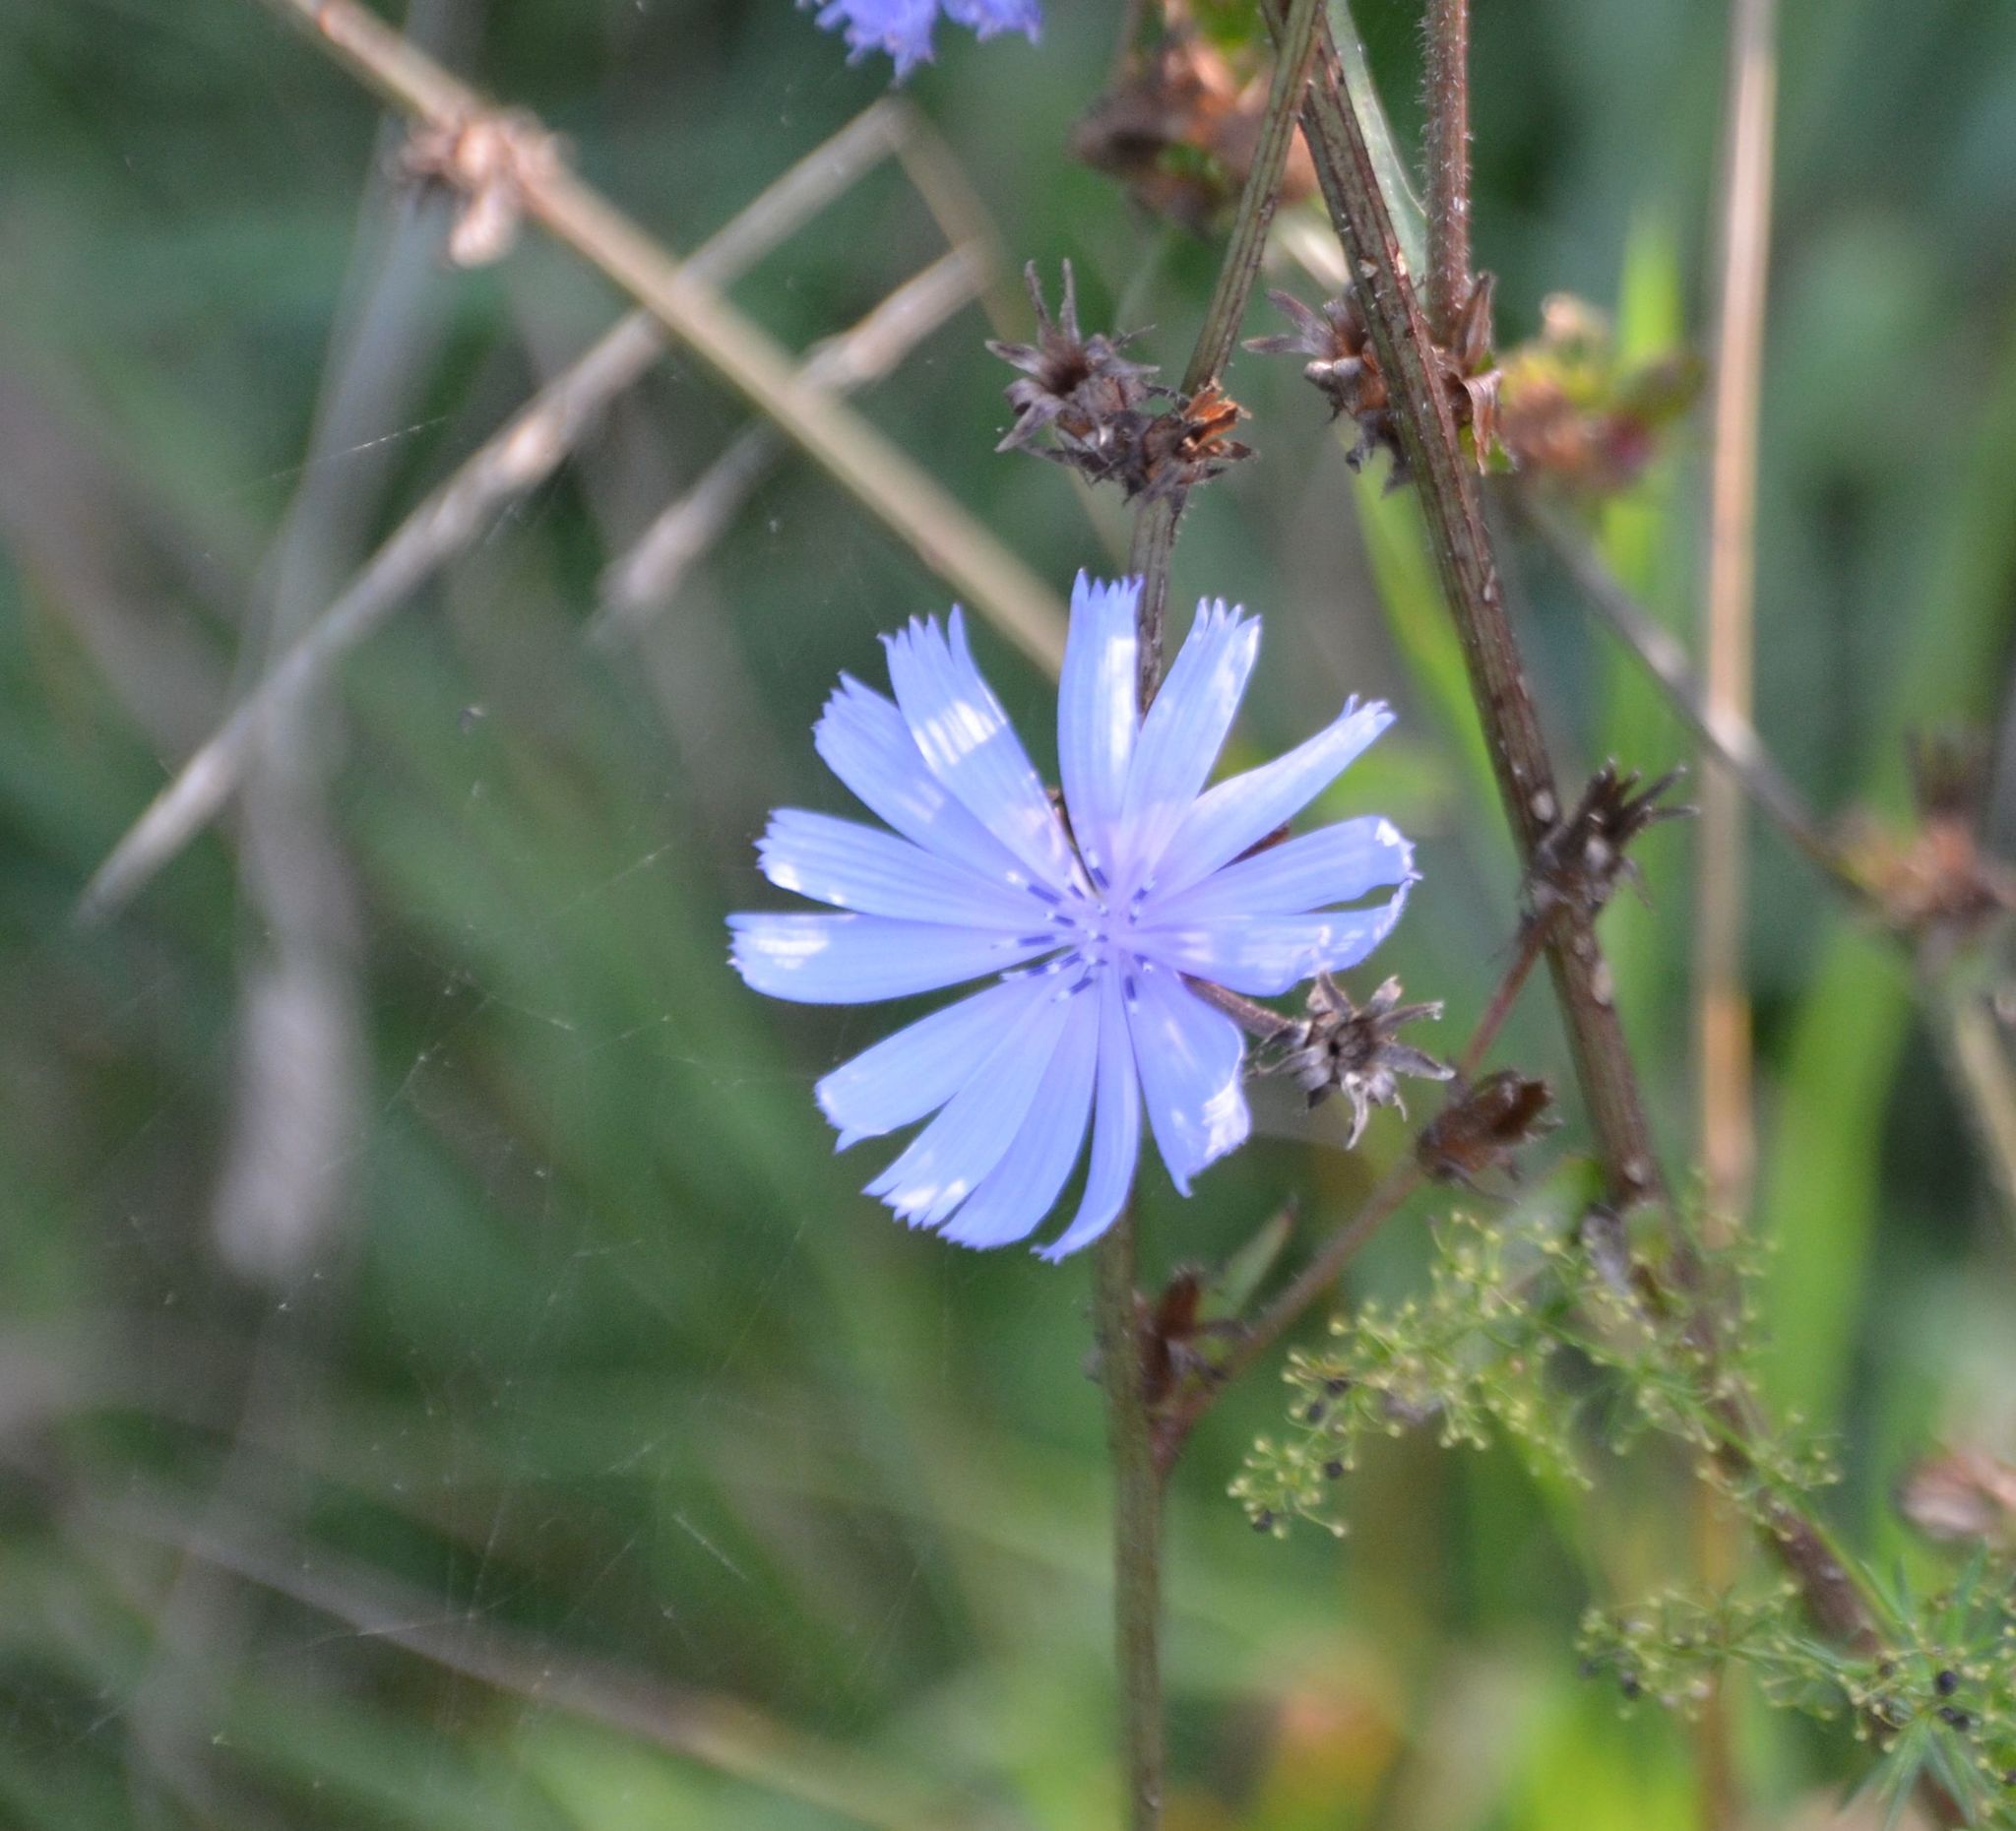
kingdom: Plantae
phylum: Tracheophyta
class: Magnoliopsida
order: Asterales
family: Asteraceae
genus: Cichorium
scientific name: Cichorium intybus
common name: Chicory
